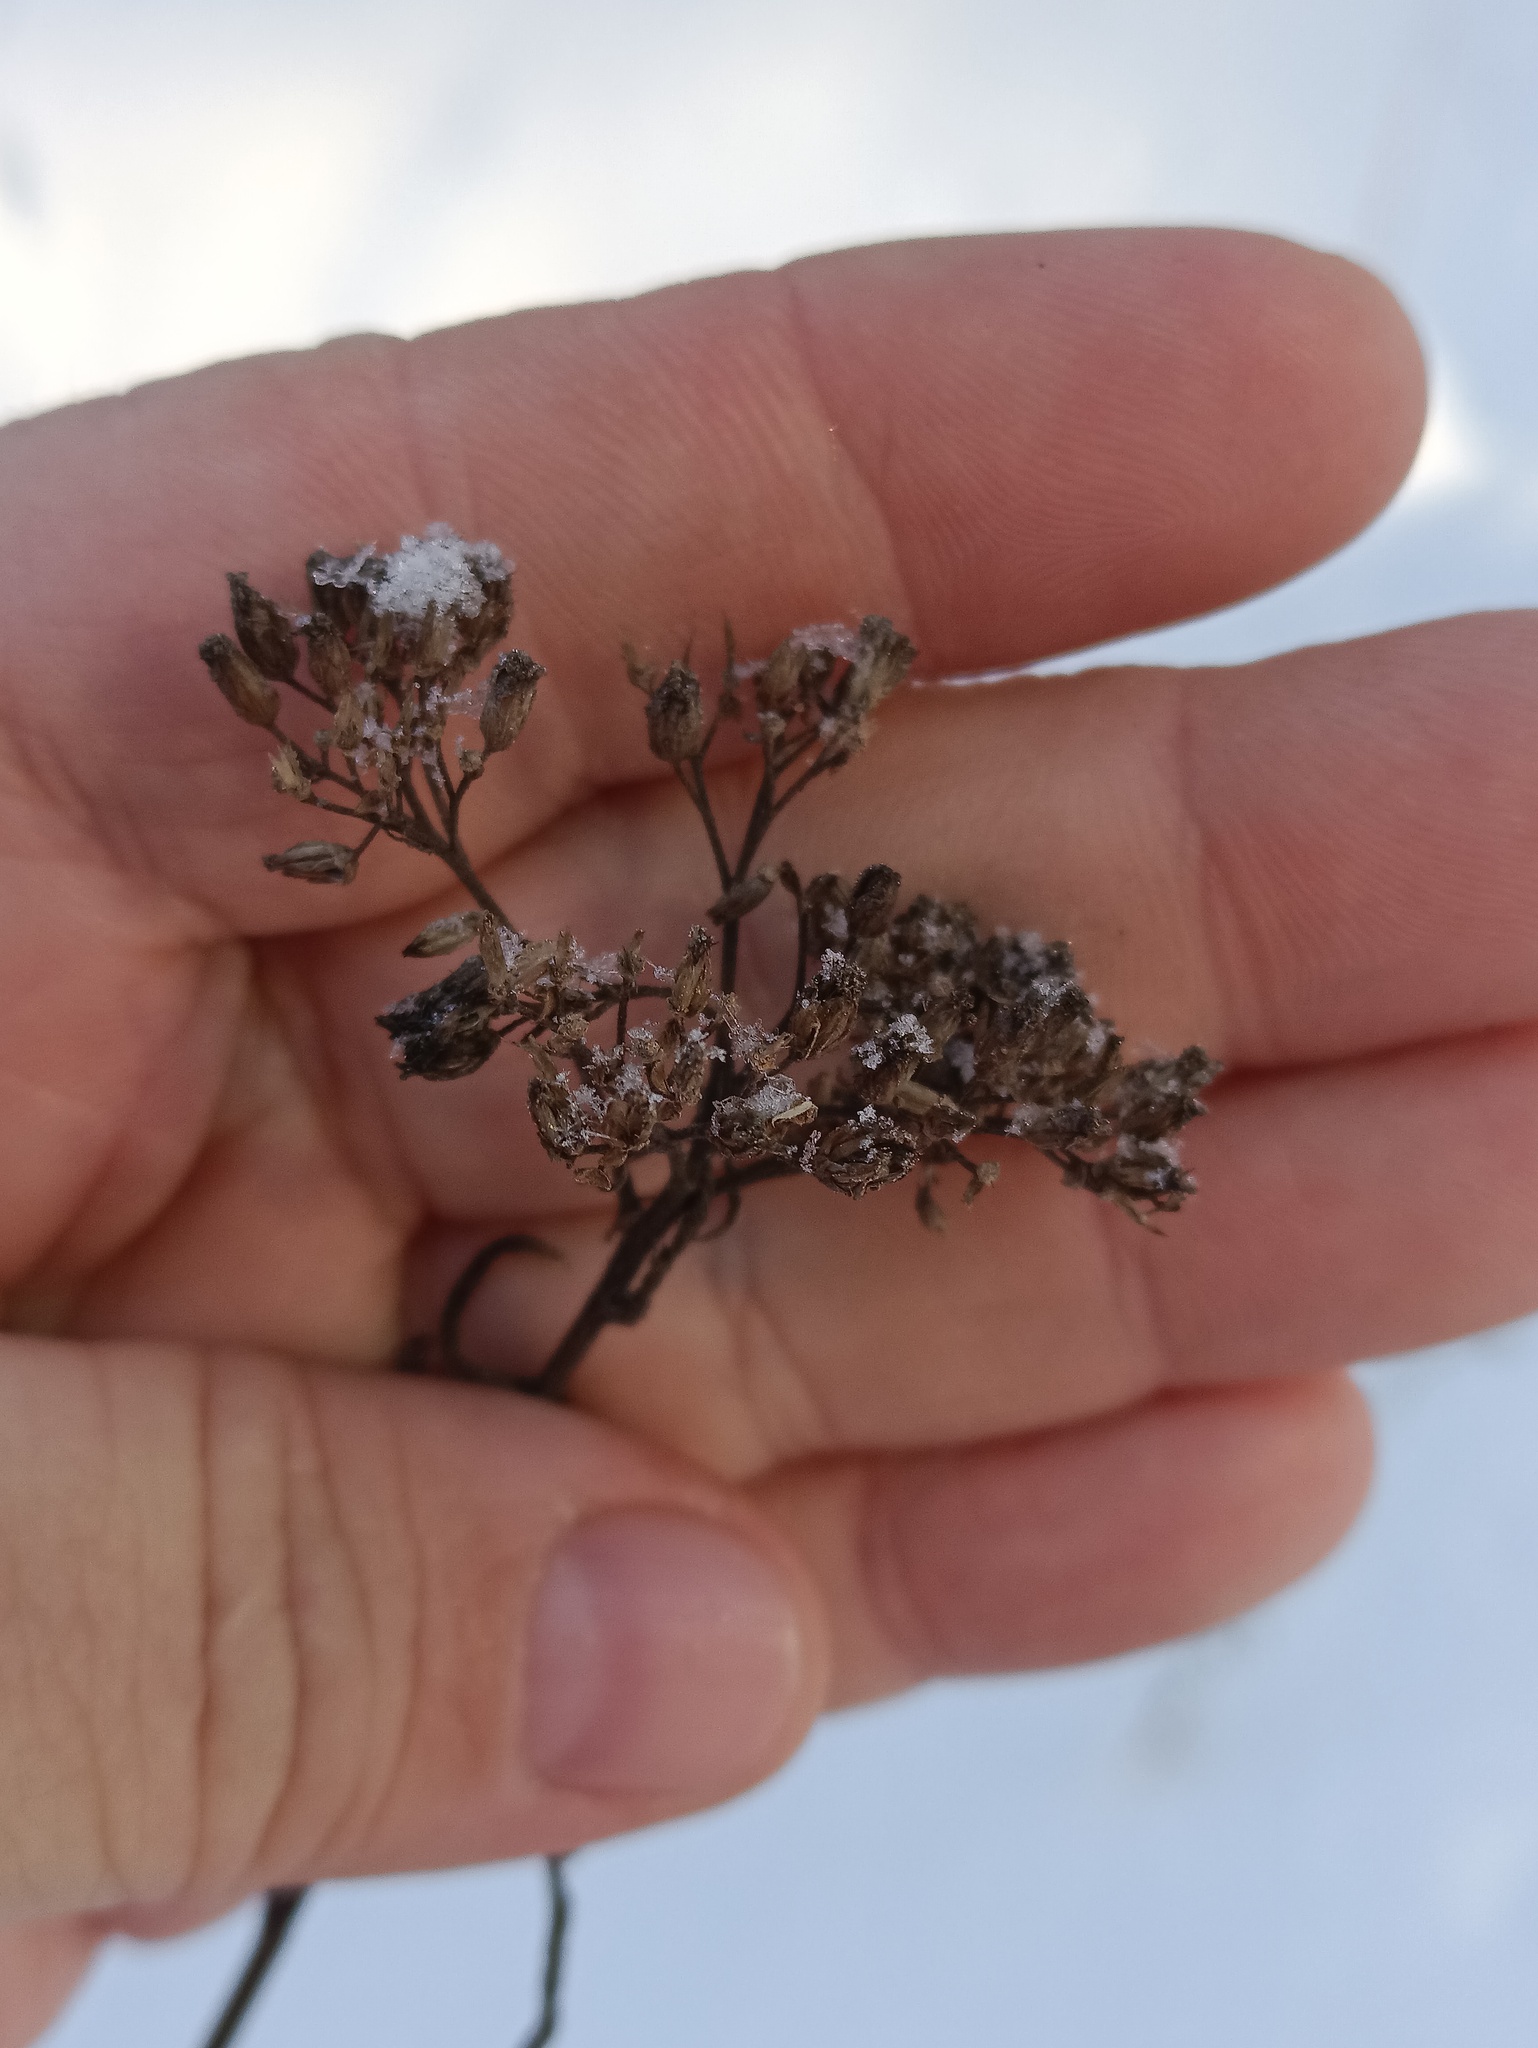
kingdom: Plantae
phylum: Tracheophyta
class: Magnoliopsida
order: Asterales
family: Asteraceae
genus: Achillea
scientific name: Achillea millefolium
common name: Yarrow
